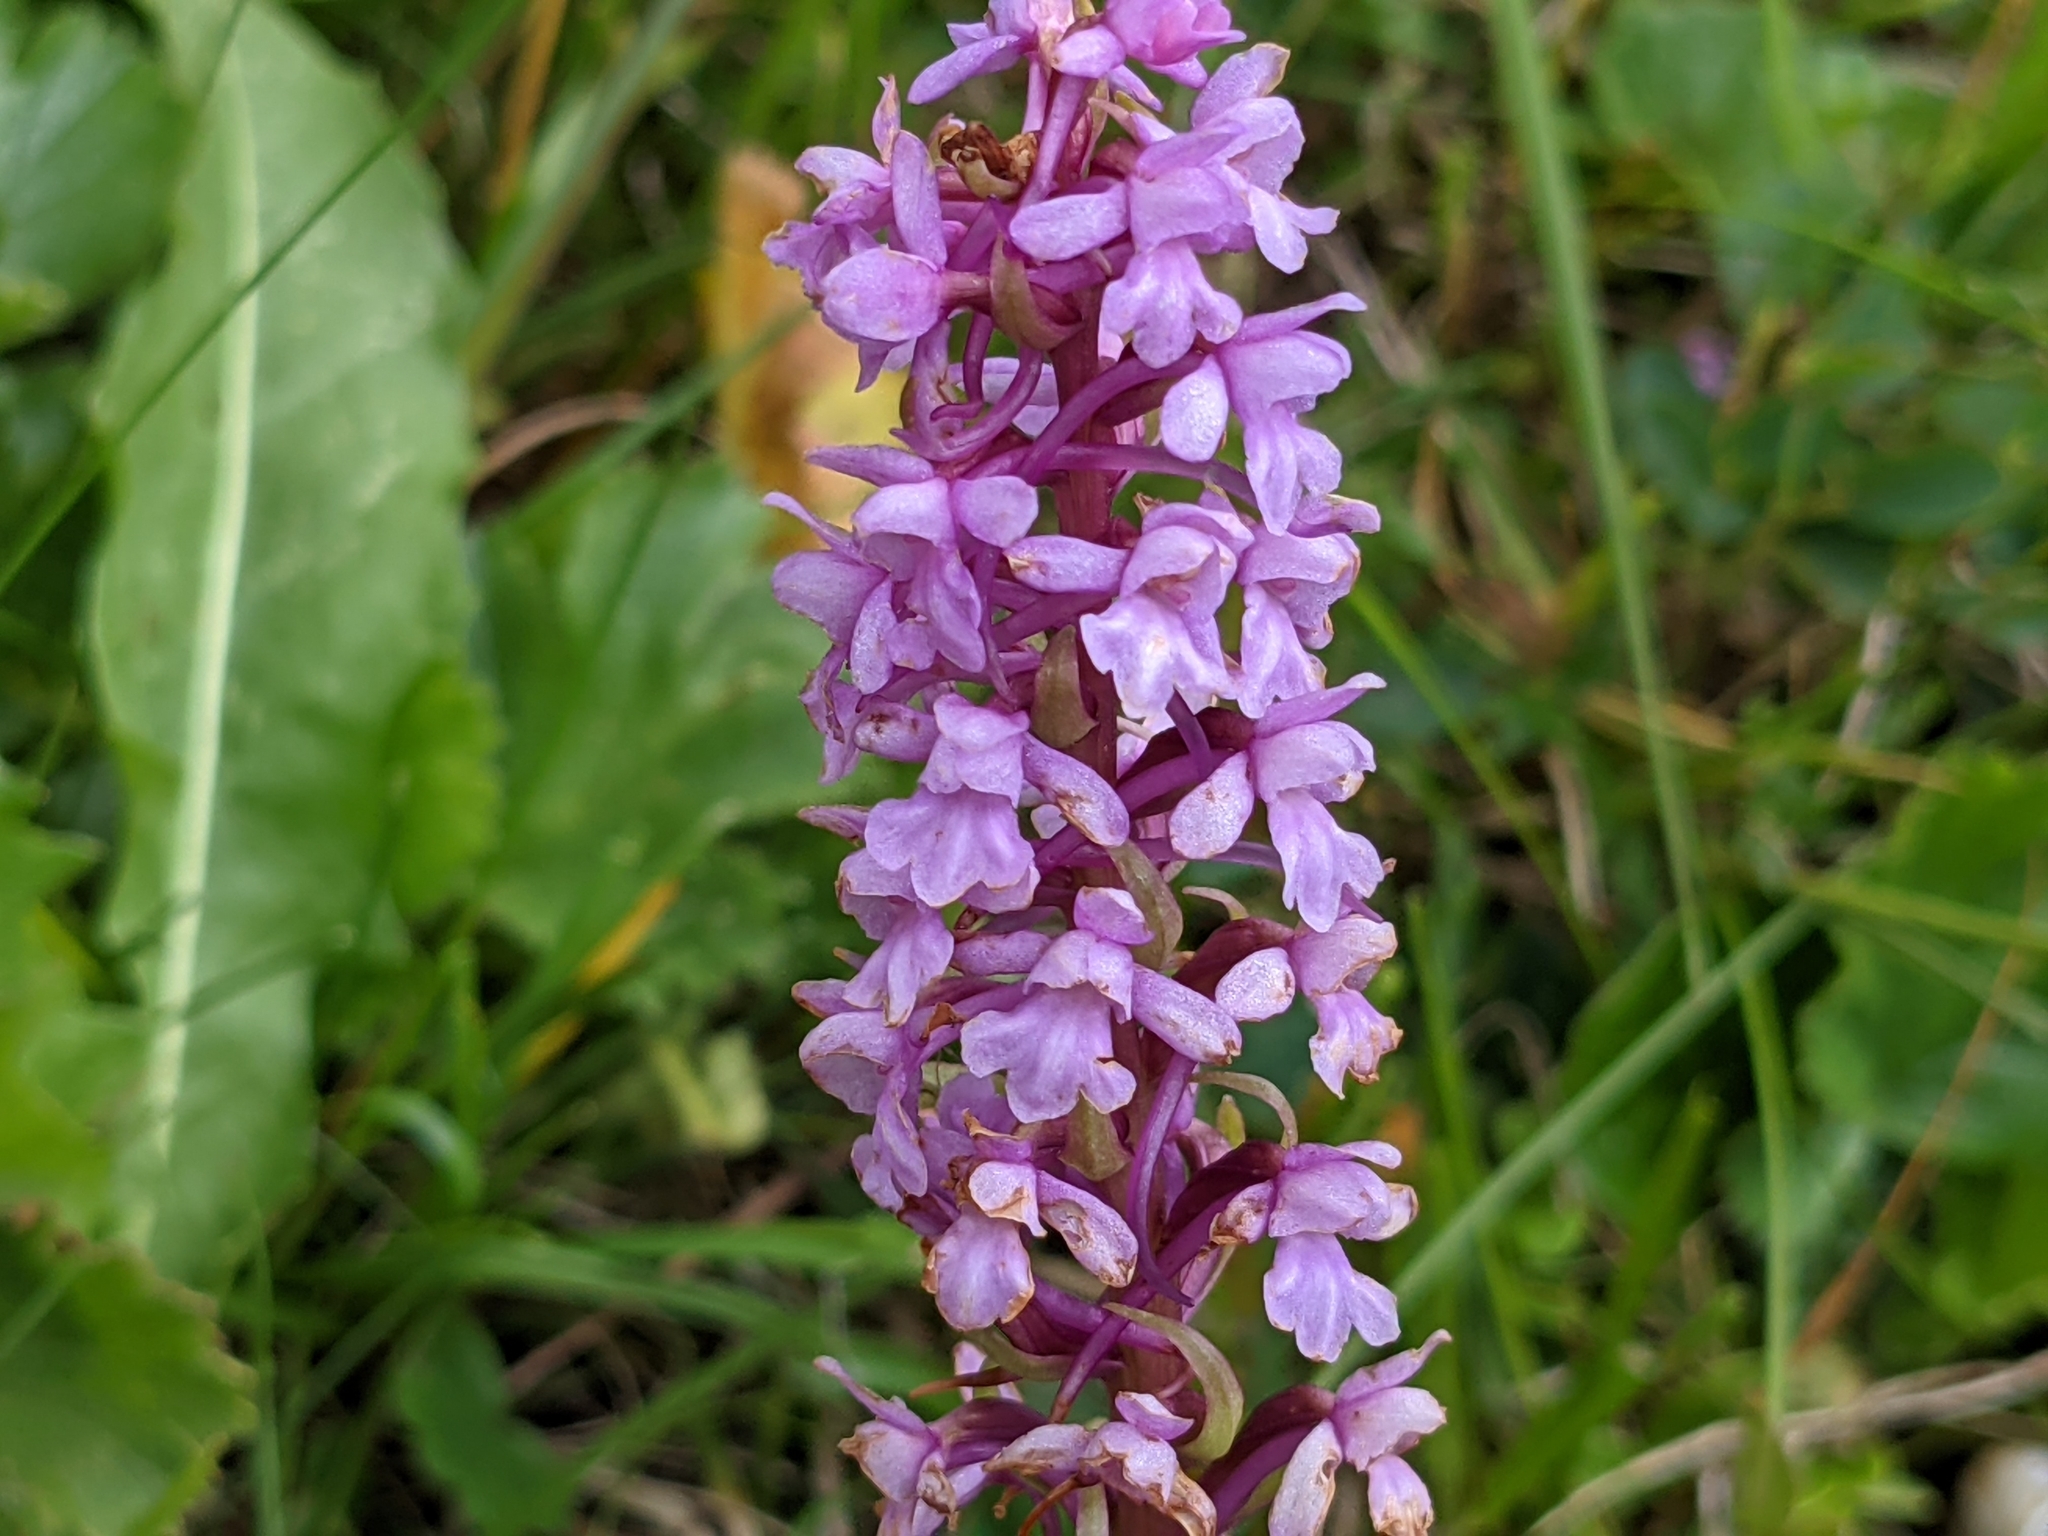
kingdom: Plantae
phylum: Tracheophyta
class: Liliopsida
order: Asparagales
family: Orchidaceae
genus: Gymnadenia
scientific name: Gymnadenia conopsea
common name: Fragrant orchid
